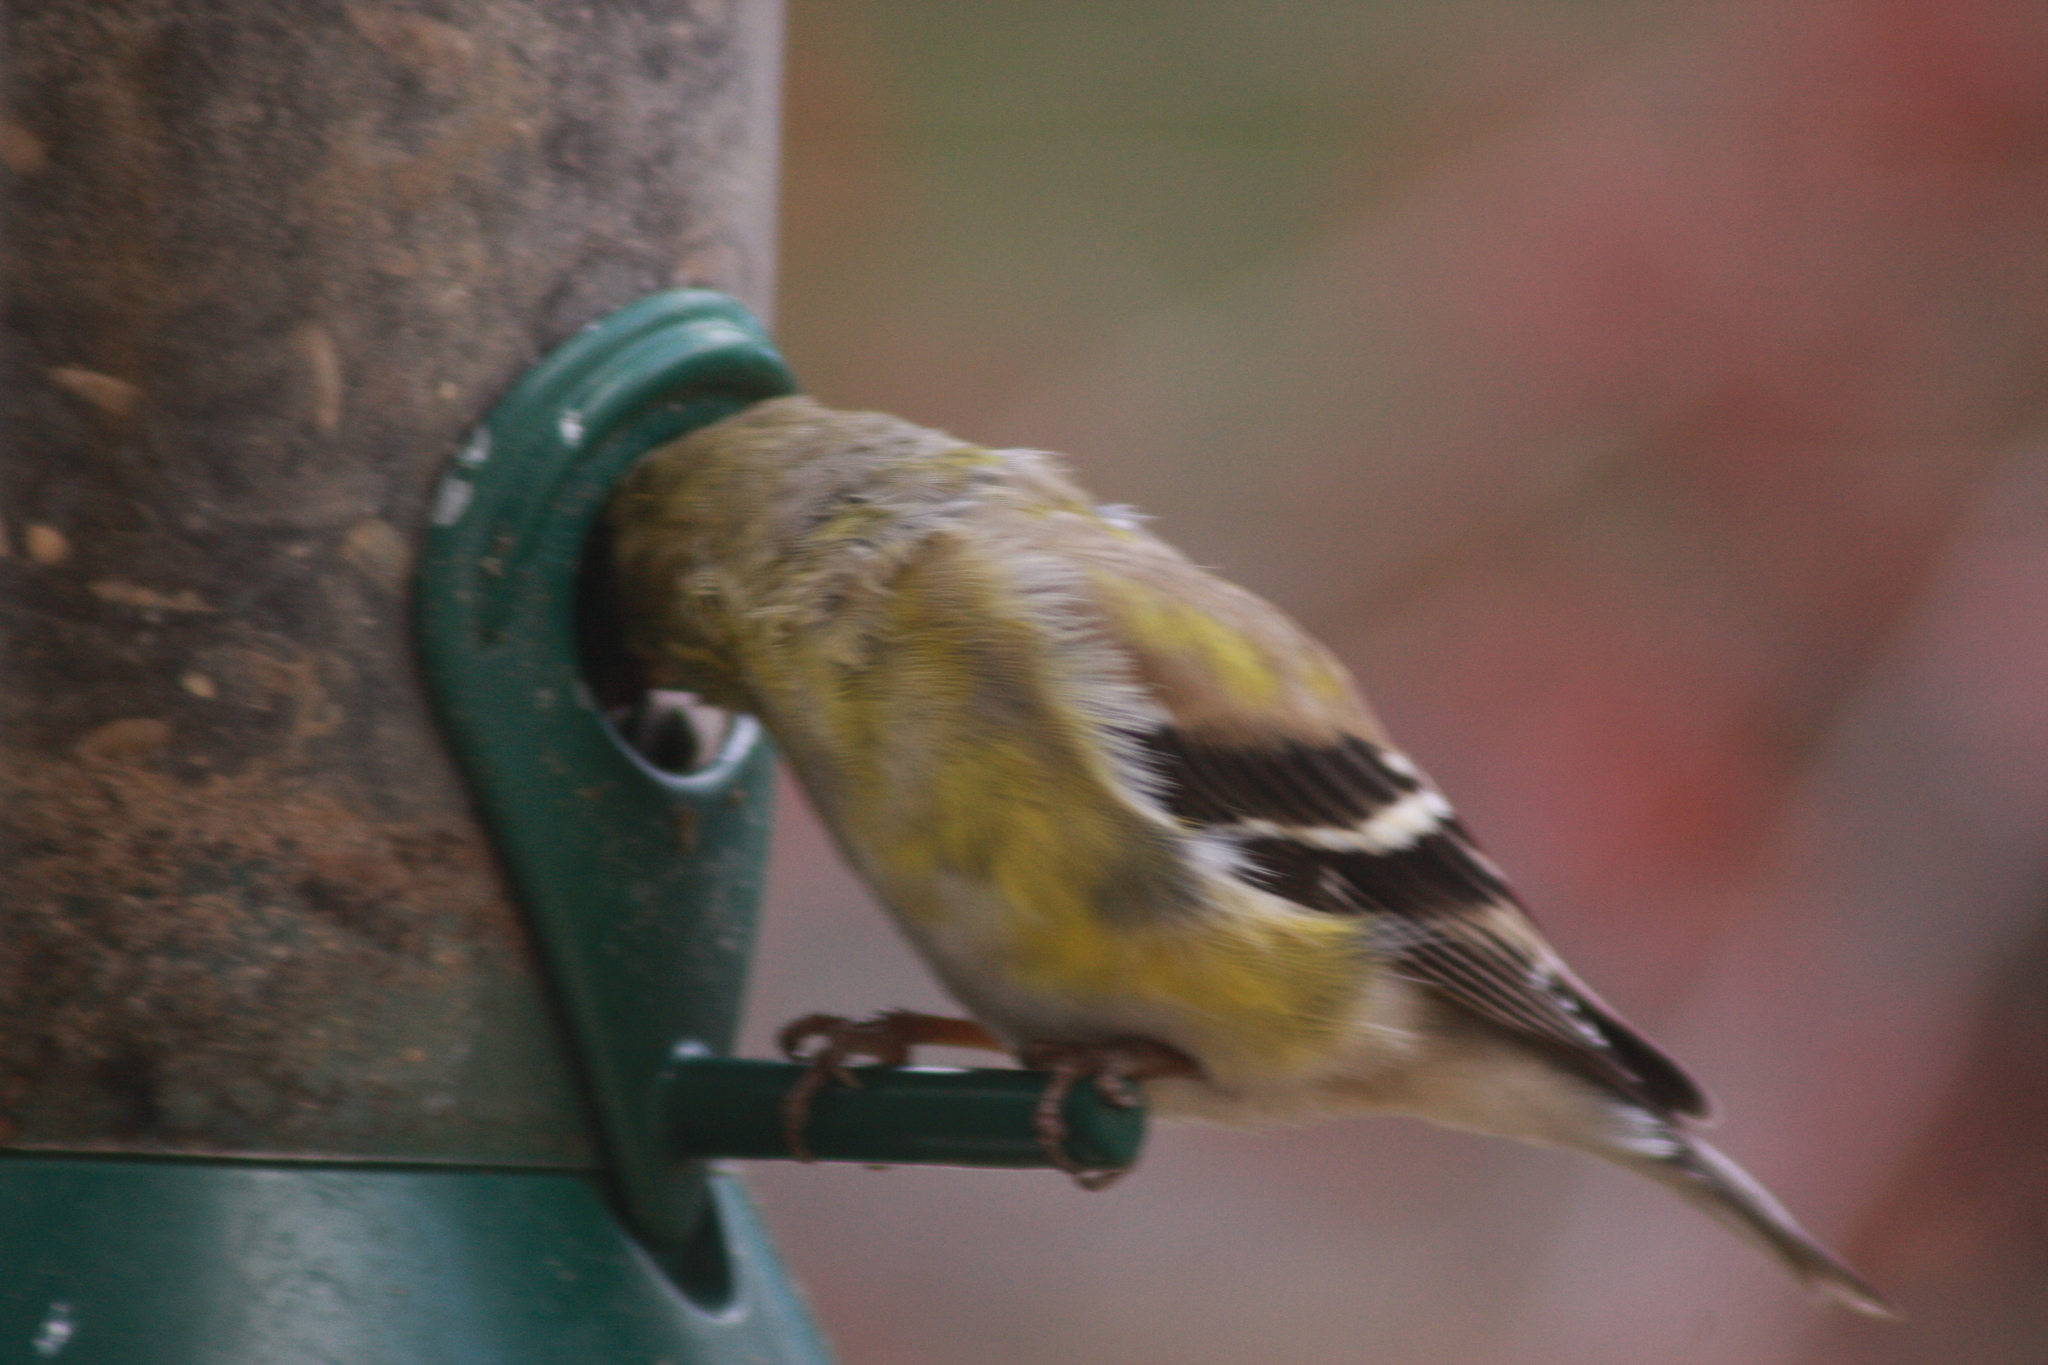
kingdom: Animalia
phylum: Chordata
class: Aves
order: Passeriformes
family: Fringillidae
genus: Spinus
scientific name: Spinus tristis
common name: American goldfinch
